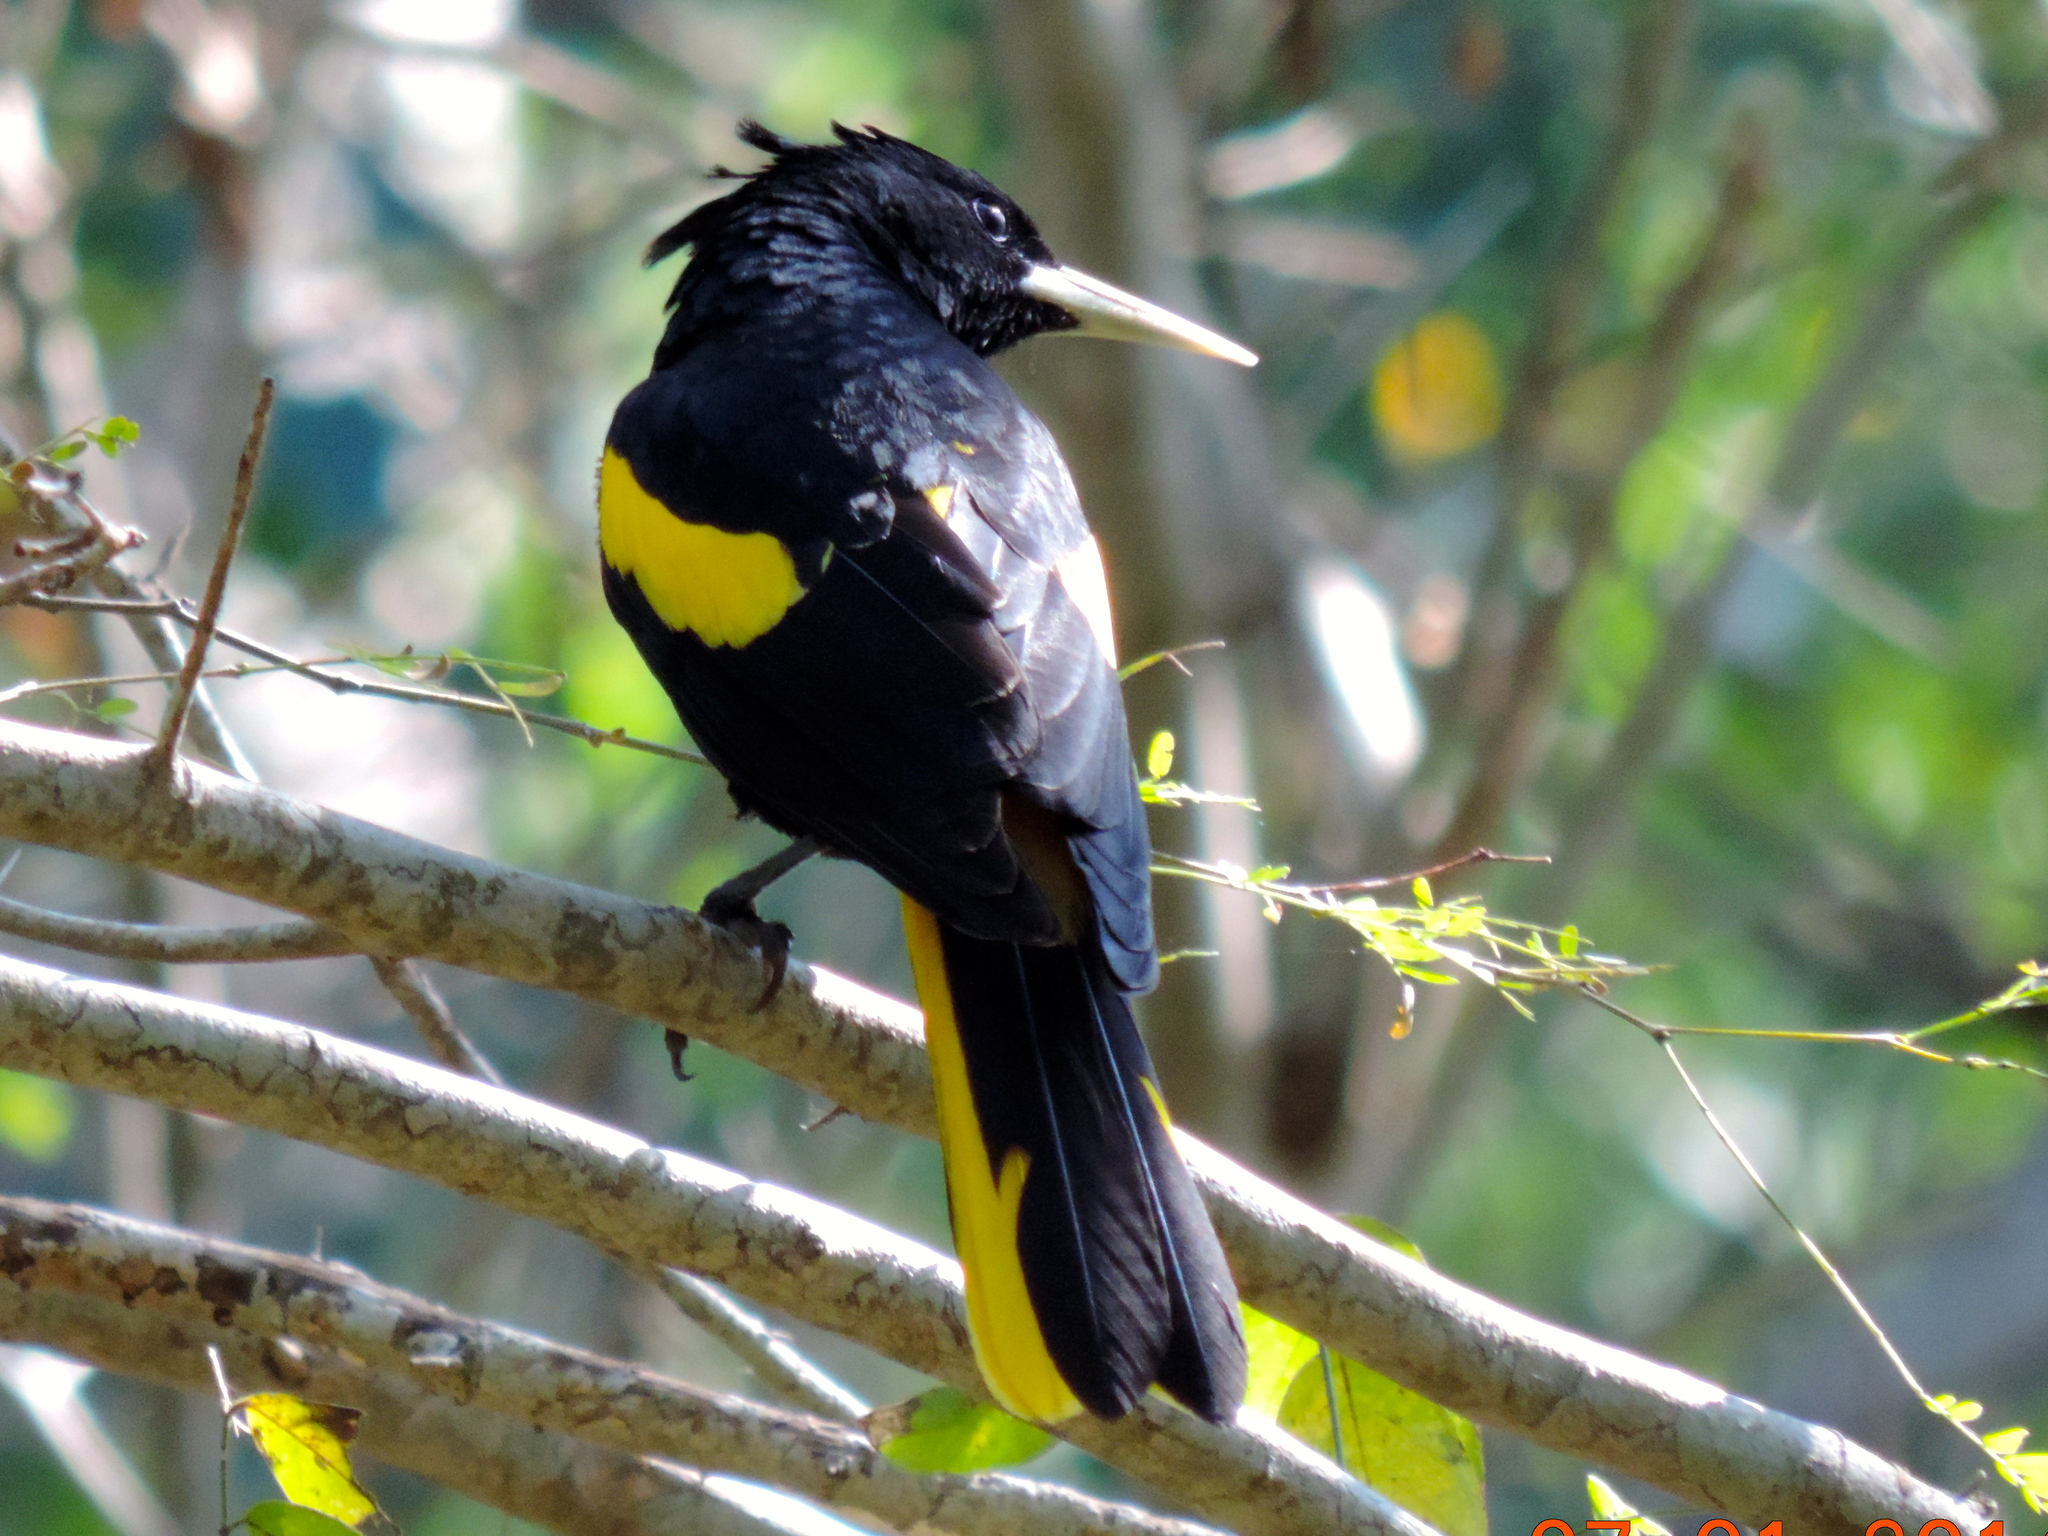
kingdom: Animalia
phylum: Chordata
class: Aves
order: Passeriformes
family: Icteridae
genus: Cacicus
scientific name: Cacicus melanicterus
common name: Yellow-winged cacique
